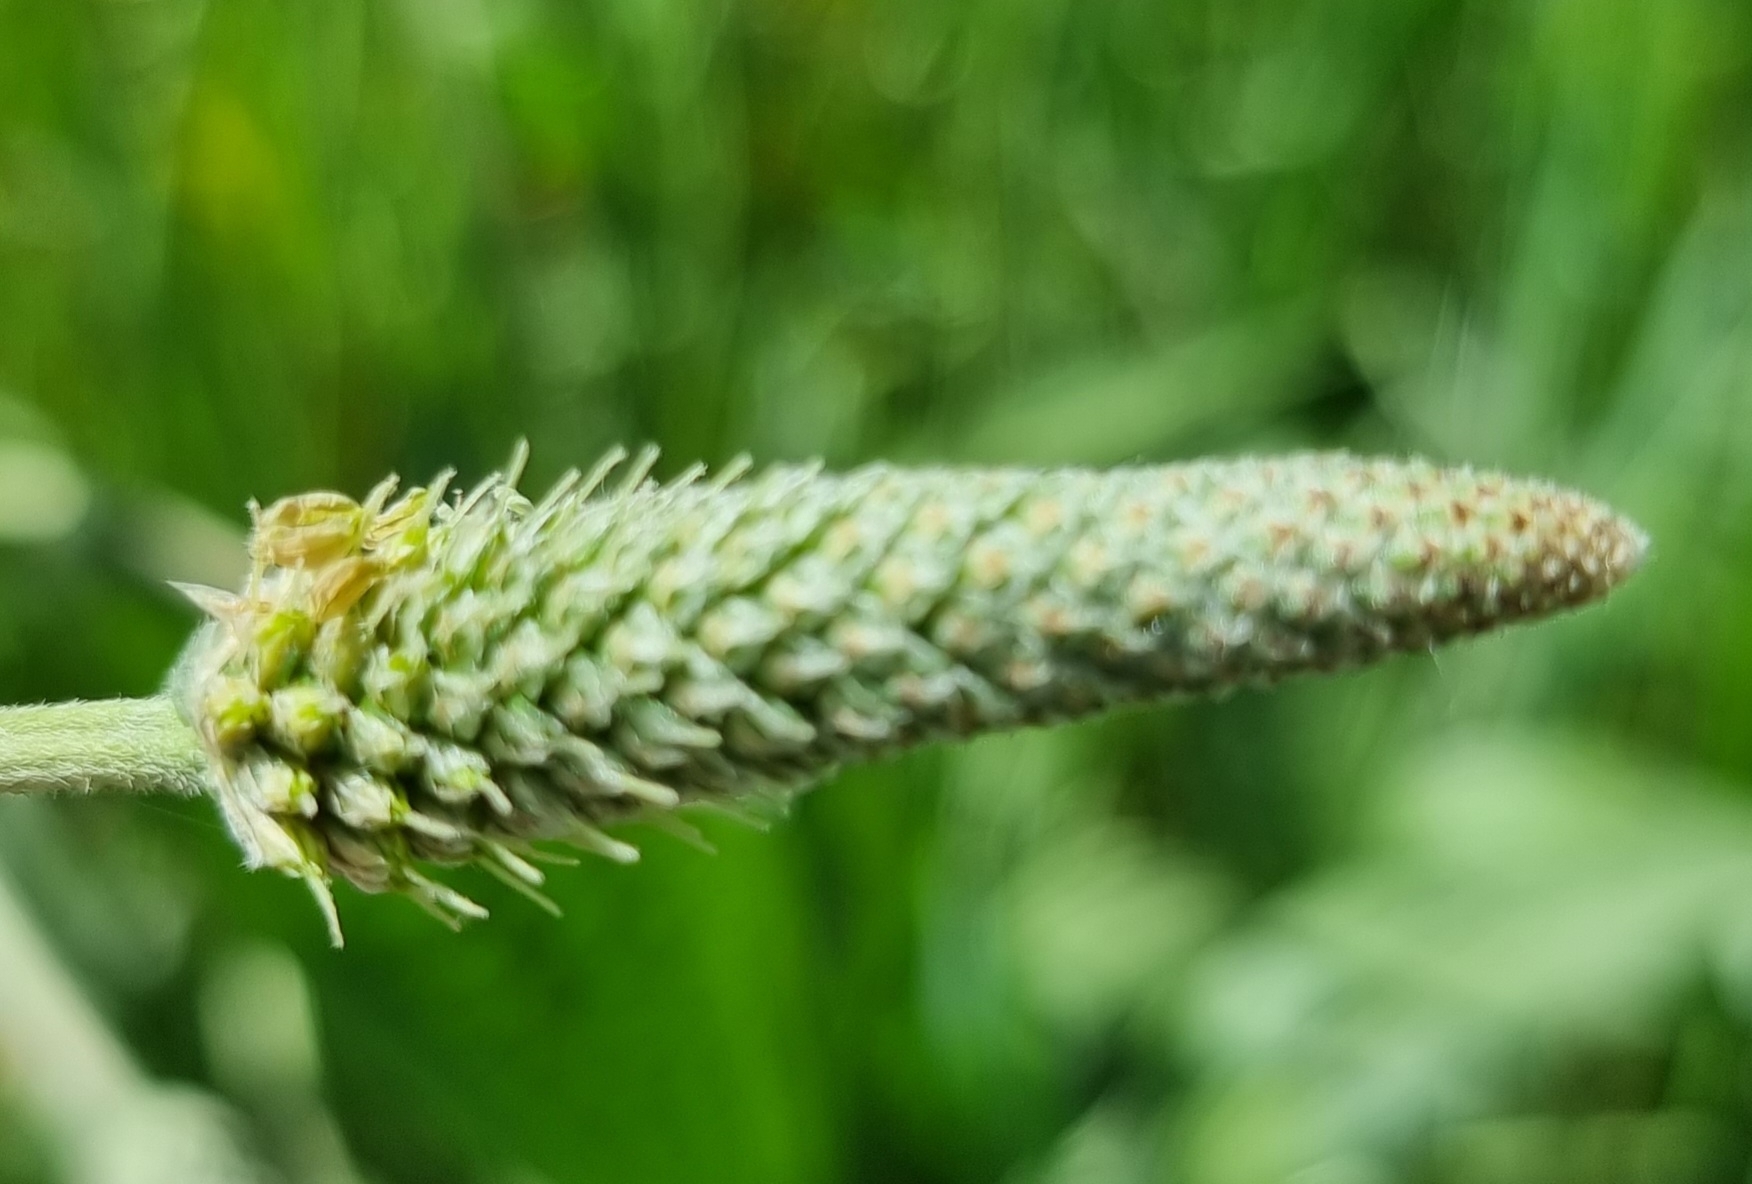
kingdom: Plantae
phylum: Tracheophyta
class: Magnoliopsida
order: Lamiales
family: Plantaginaceae
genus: Plantago
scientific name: Plantago lanceolata
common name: Ribwort plantain
